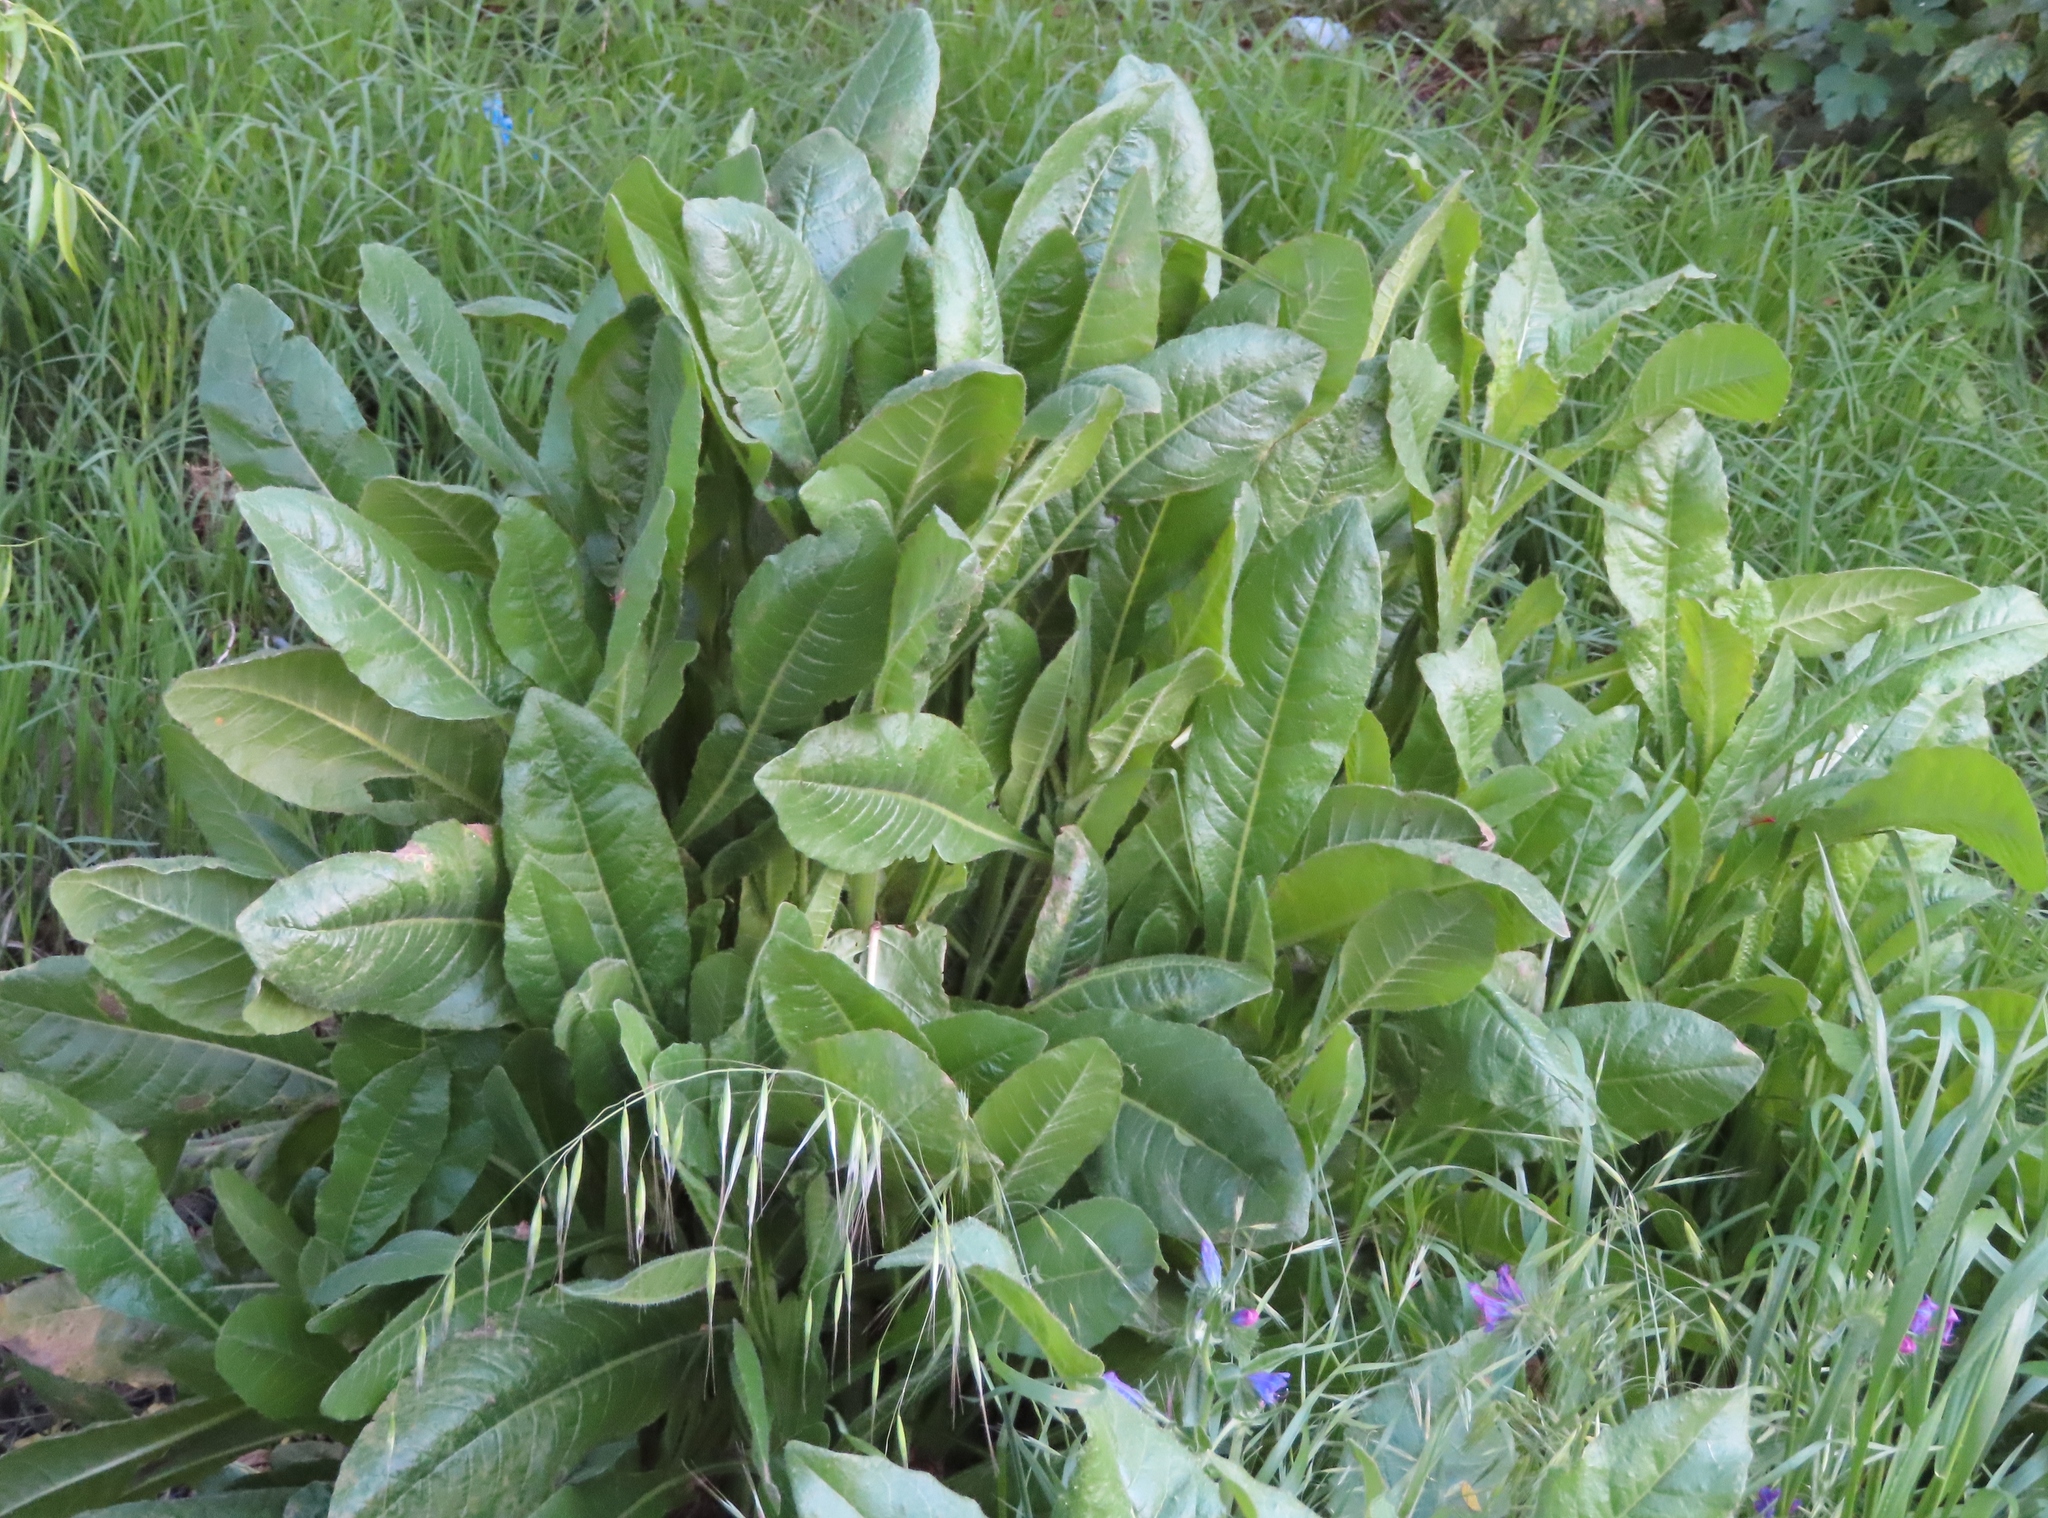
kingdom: Plantae
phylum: Tracheophyta
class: Magnoliopsida
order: Asterales
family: Asteraceae
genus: Helminthotheca
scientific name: Helminthotheca echioides
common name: Ox-tongue
